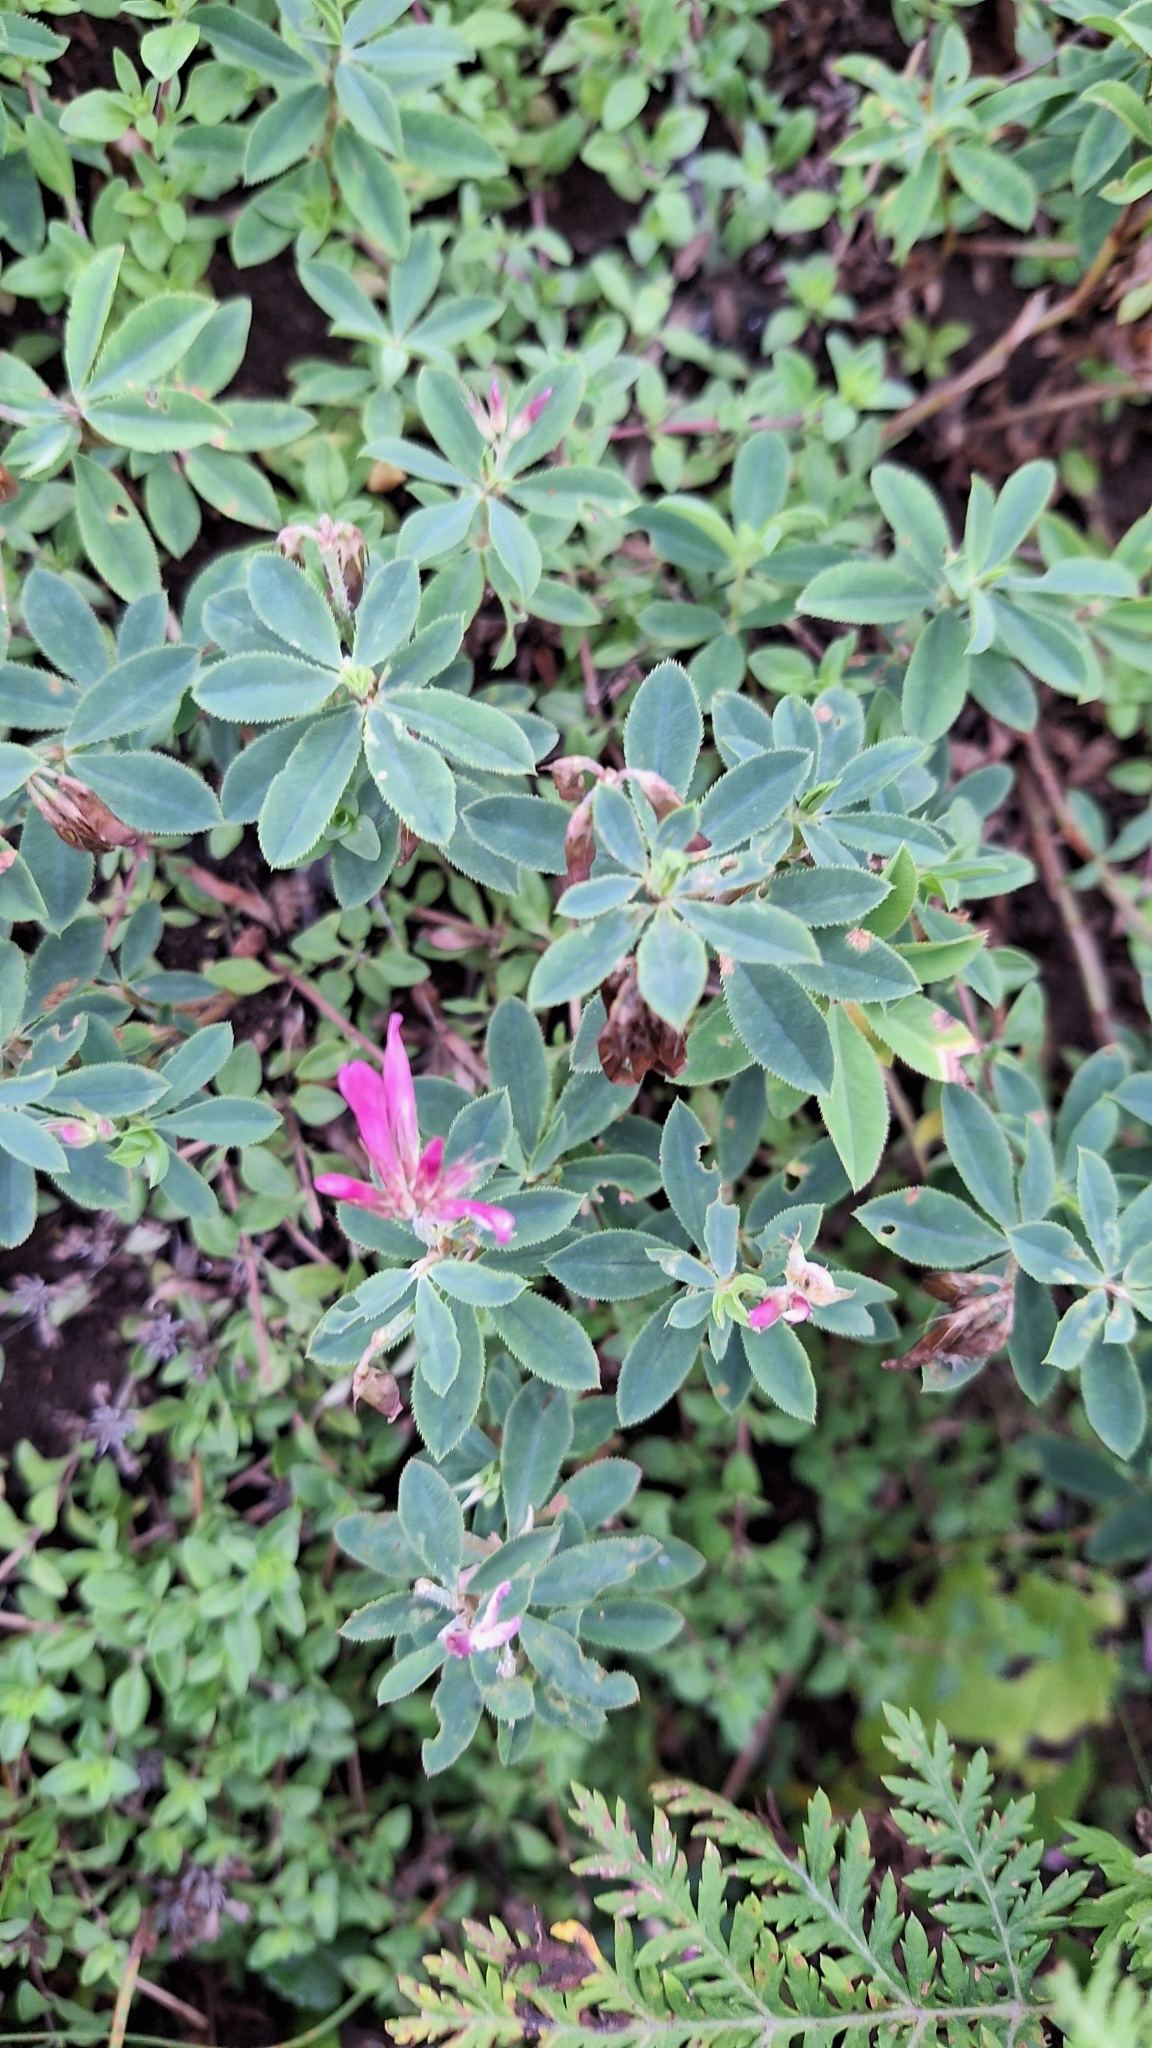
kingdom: Plantae
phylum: Tracheophyta
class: Magnoliopsida
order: Fabales
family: Fabaceae
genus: Trifolium
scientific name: Trifolium lupinaster
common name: Lupine clover
